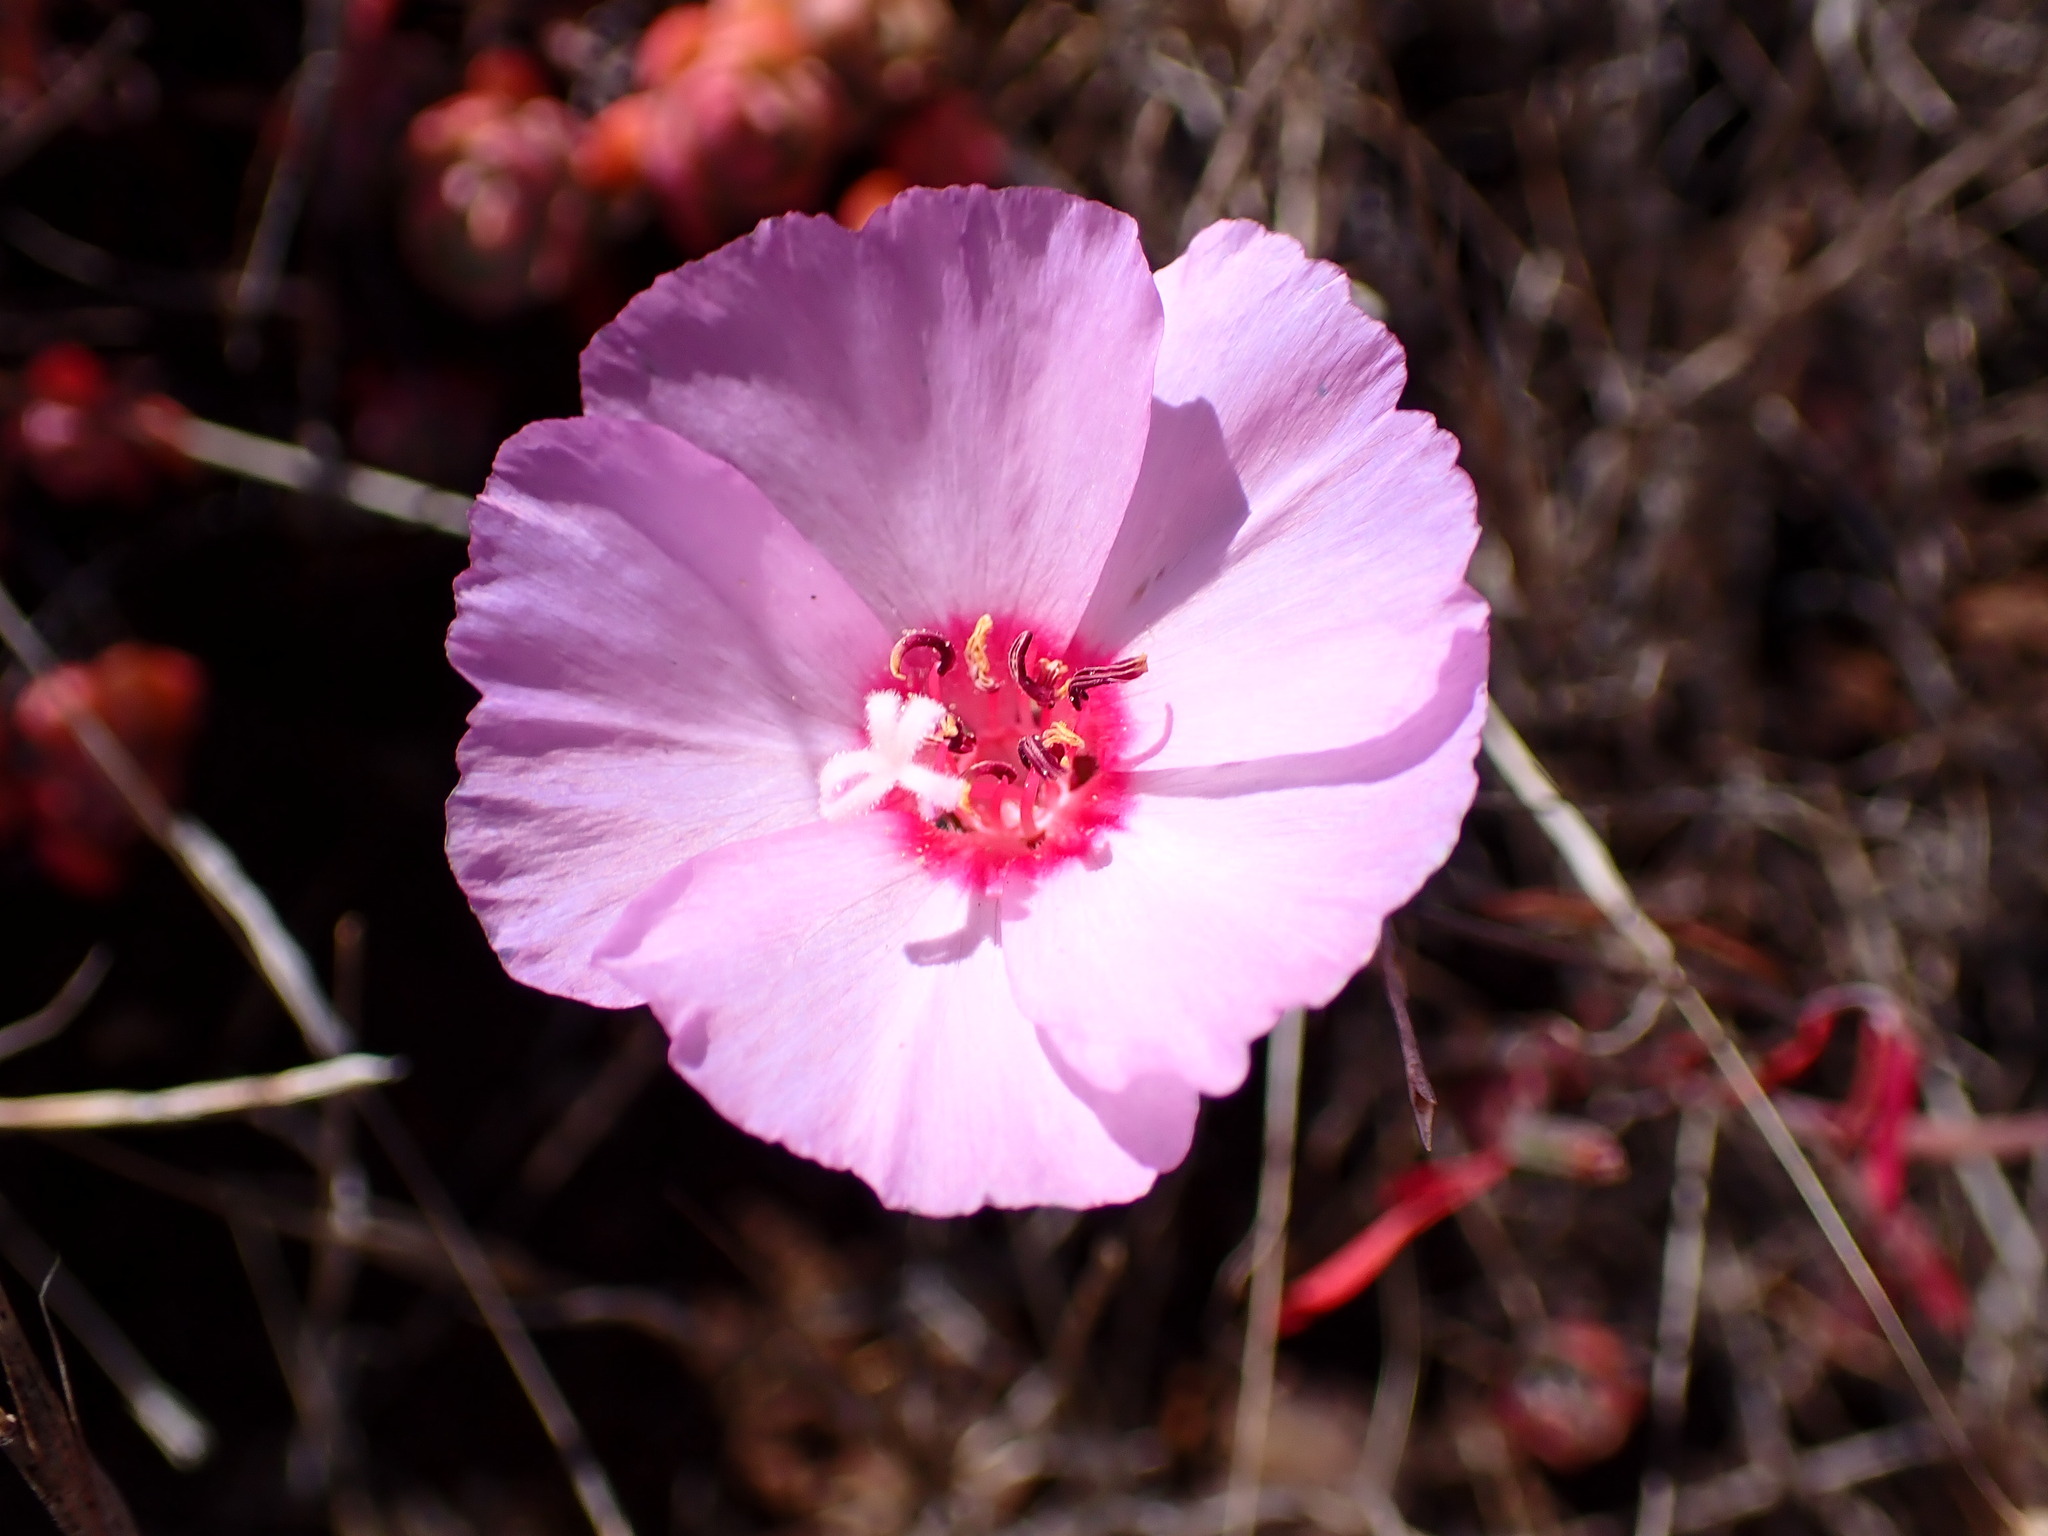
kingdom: Plantae
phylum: Tracheophyta
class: Magnoliopsida
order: Myrtales
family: Onagraceae
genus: Clarkia
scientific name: Clarkia rubicunda
